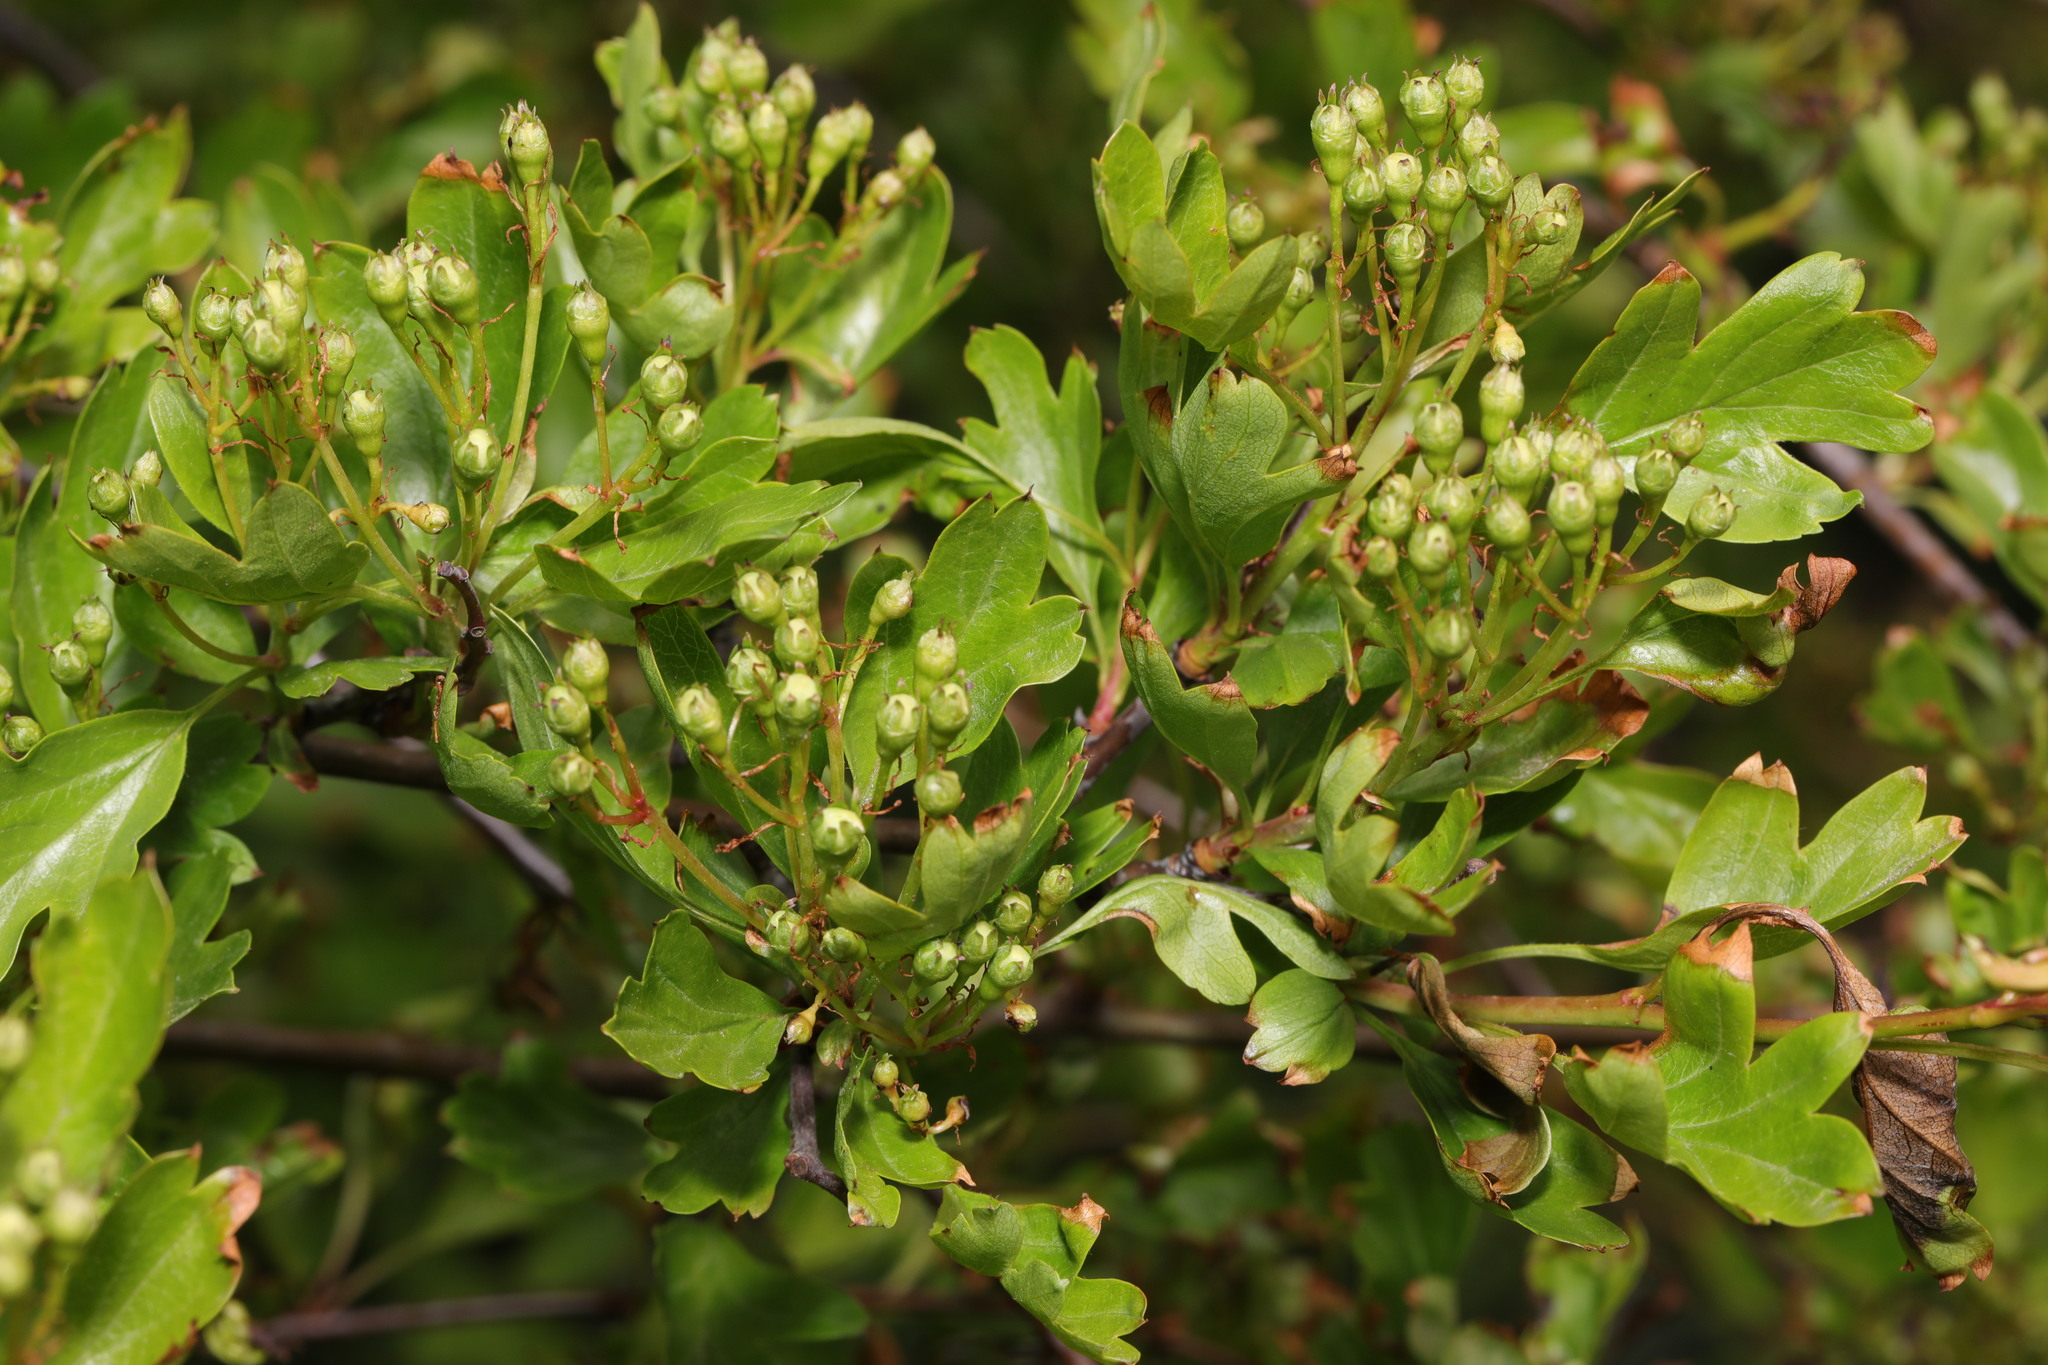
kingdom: Plantae
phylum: Tracheophyta
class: Magnoliopsida
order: Rosales
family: Rosaceae
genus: Crataegus
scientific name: Crataegus monogyna
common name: Hawthorn
